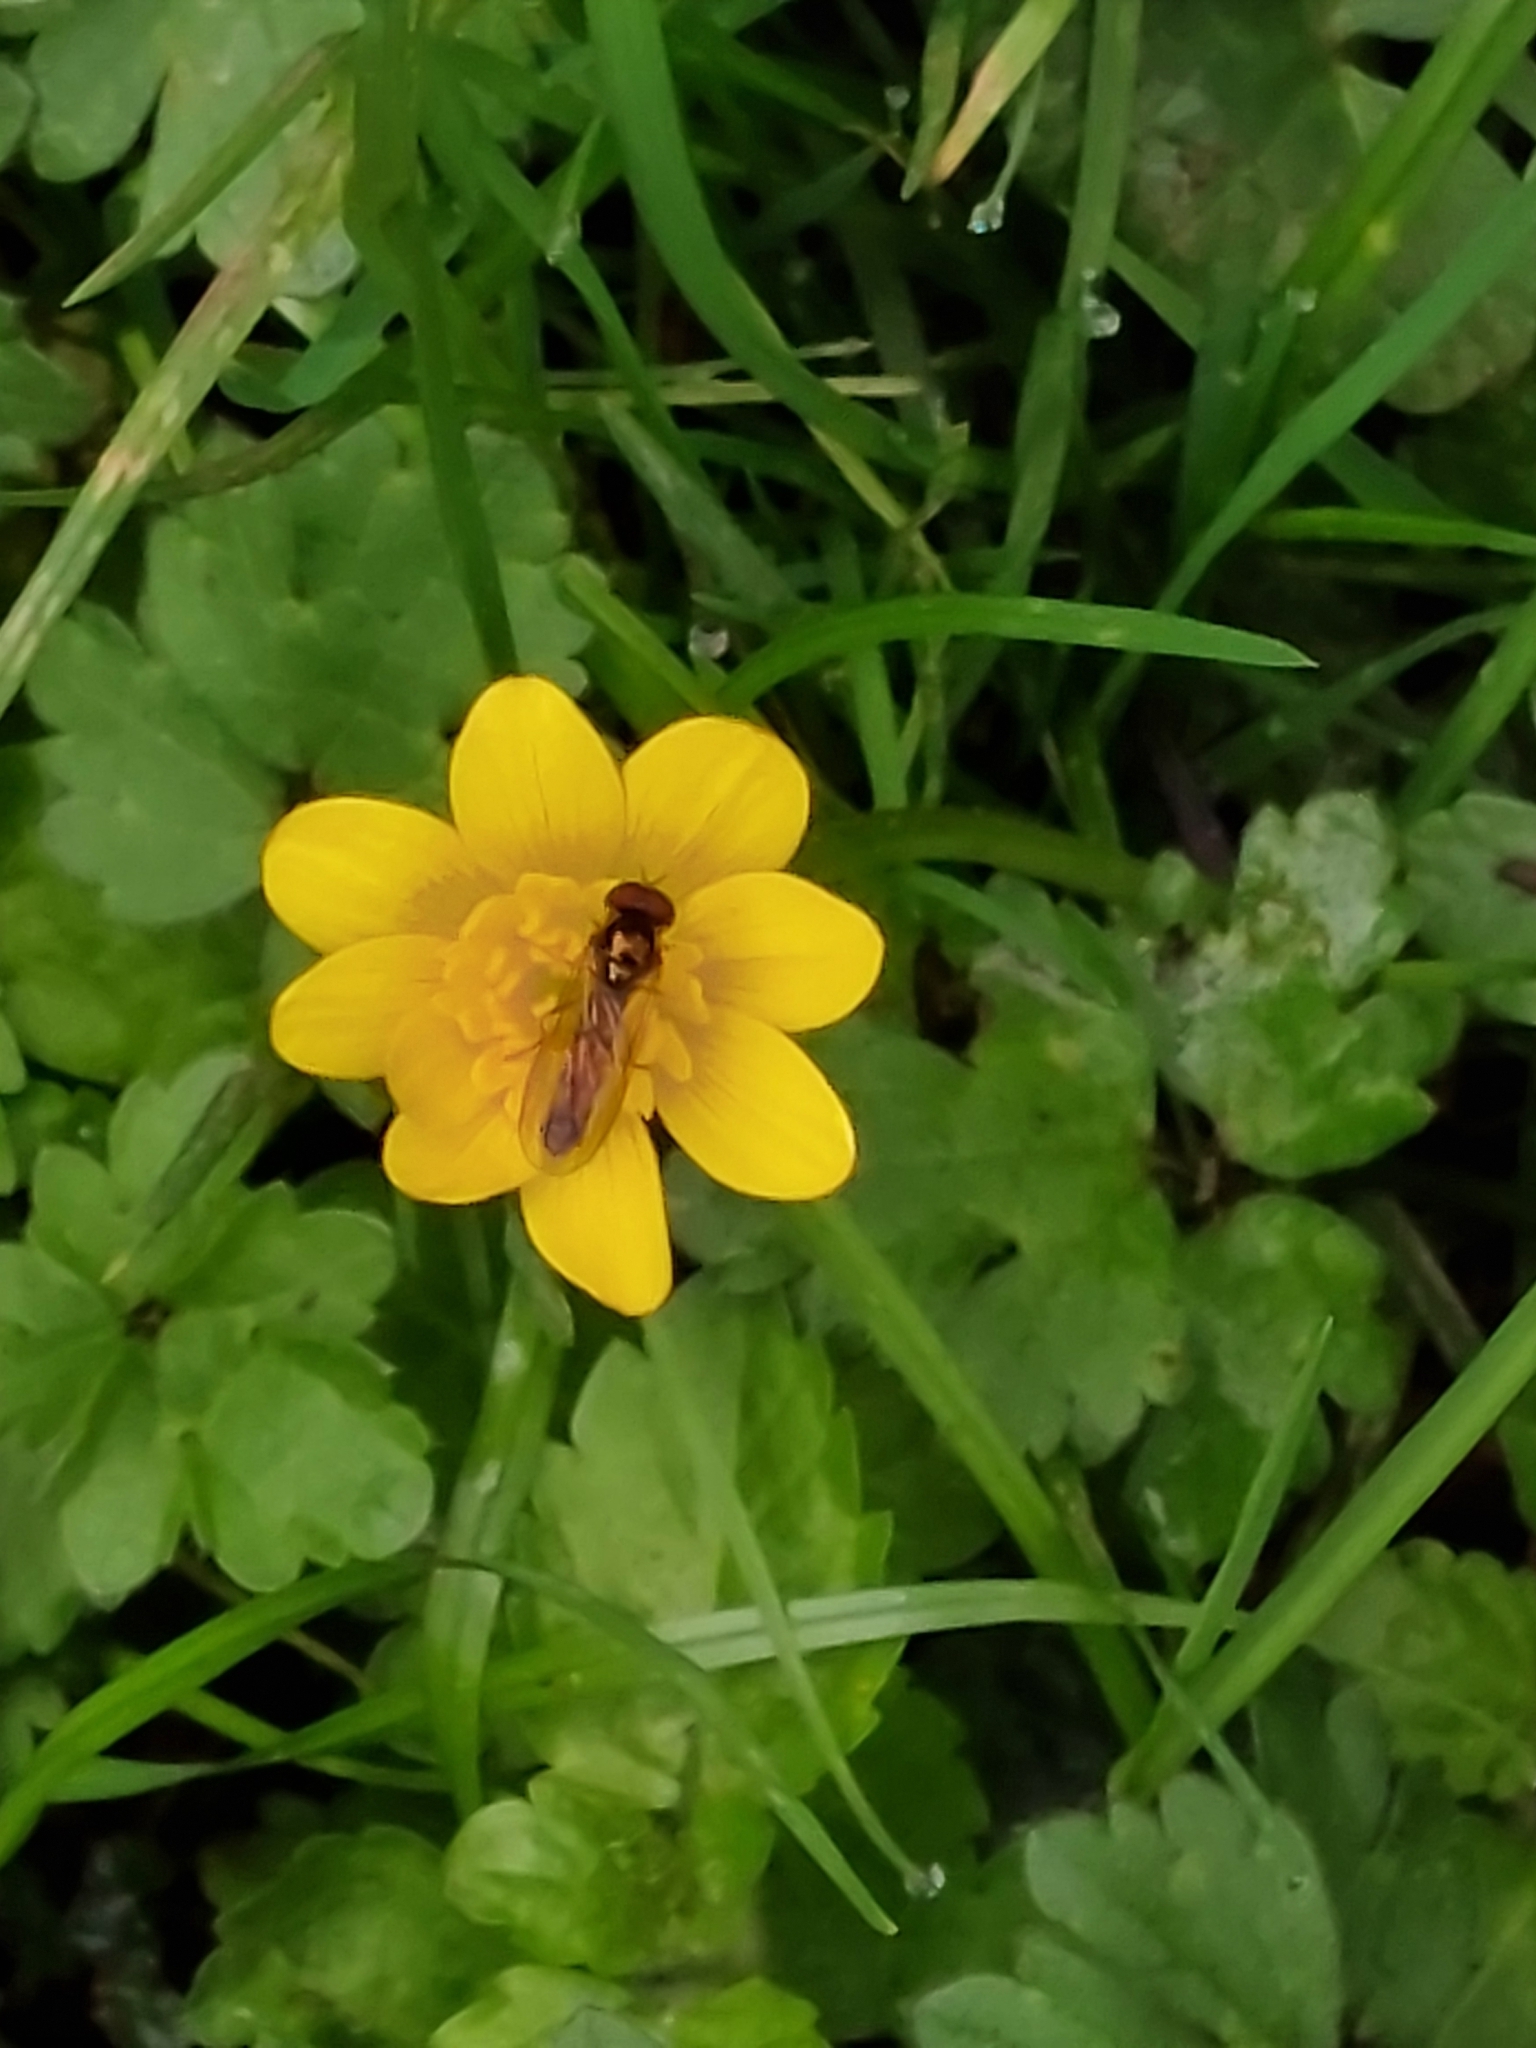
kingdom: Animalia
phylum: Arthropoda
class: Insecta
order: Diptera
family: Syrphidae
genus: Melanostoma
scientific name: Melanostoma scalare
